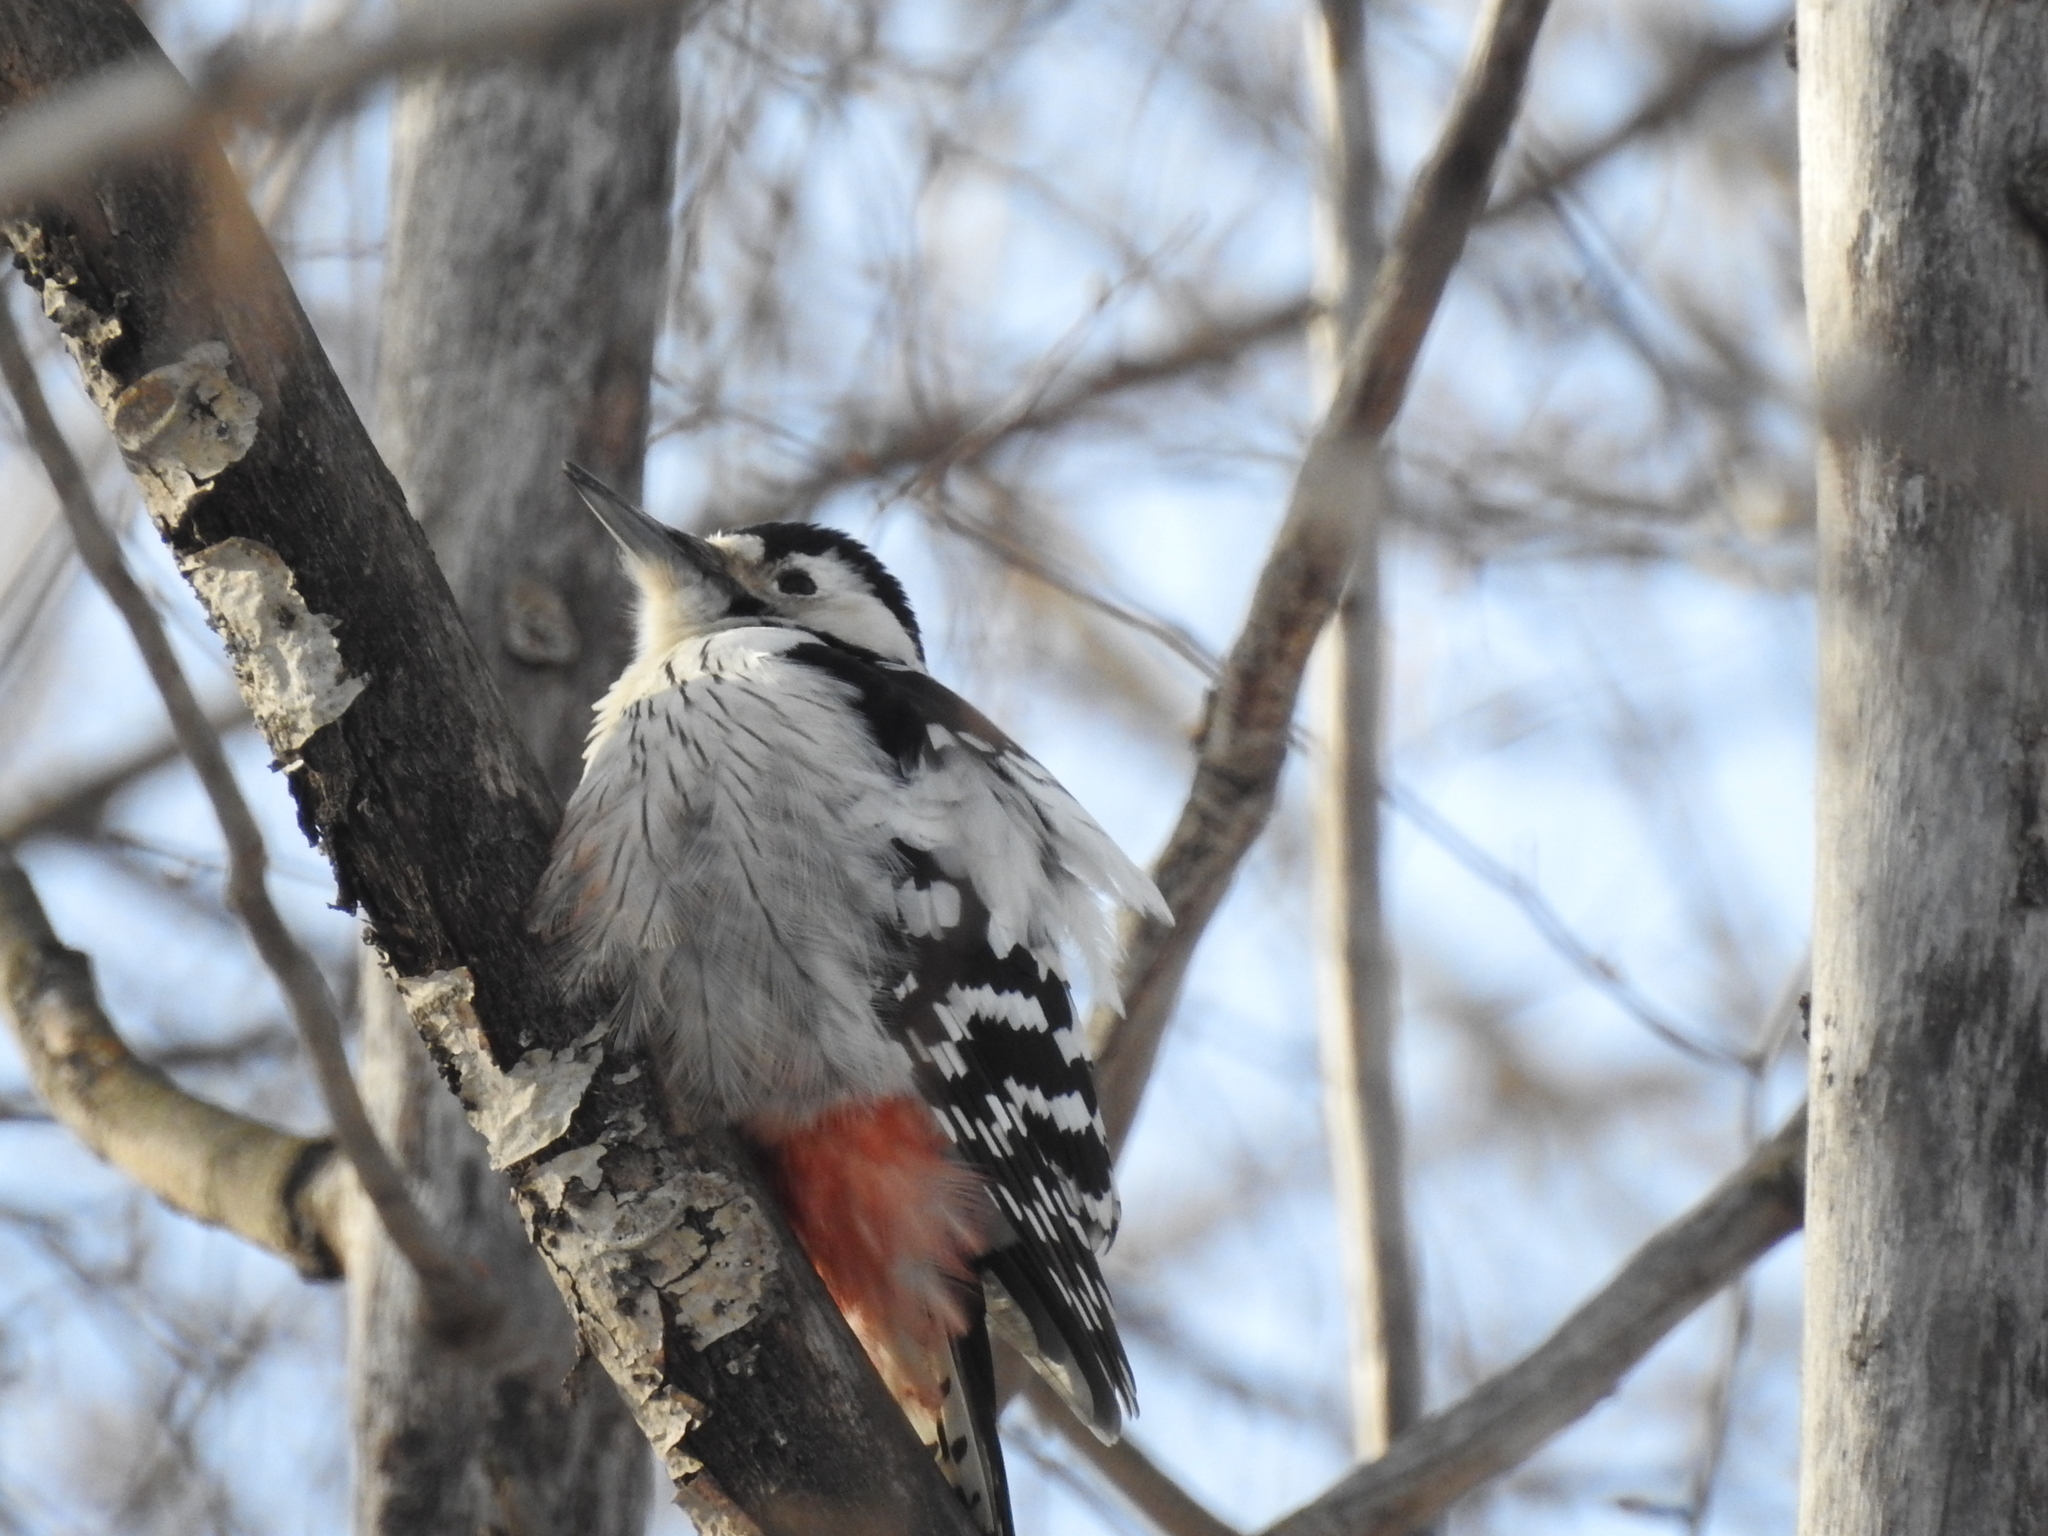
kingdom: Animalia
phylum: Chordata
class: Aves
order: Piciformes
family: Picidae
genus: Dendrocopos
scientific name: Dendrocopos leucotos
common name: White-backed woodpecker
